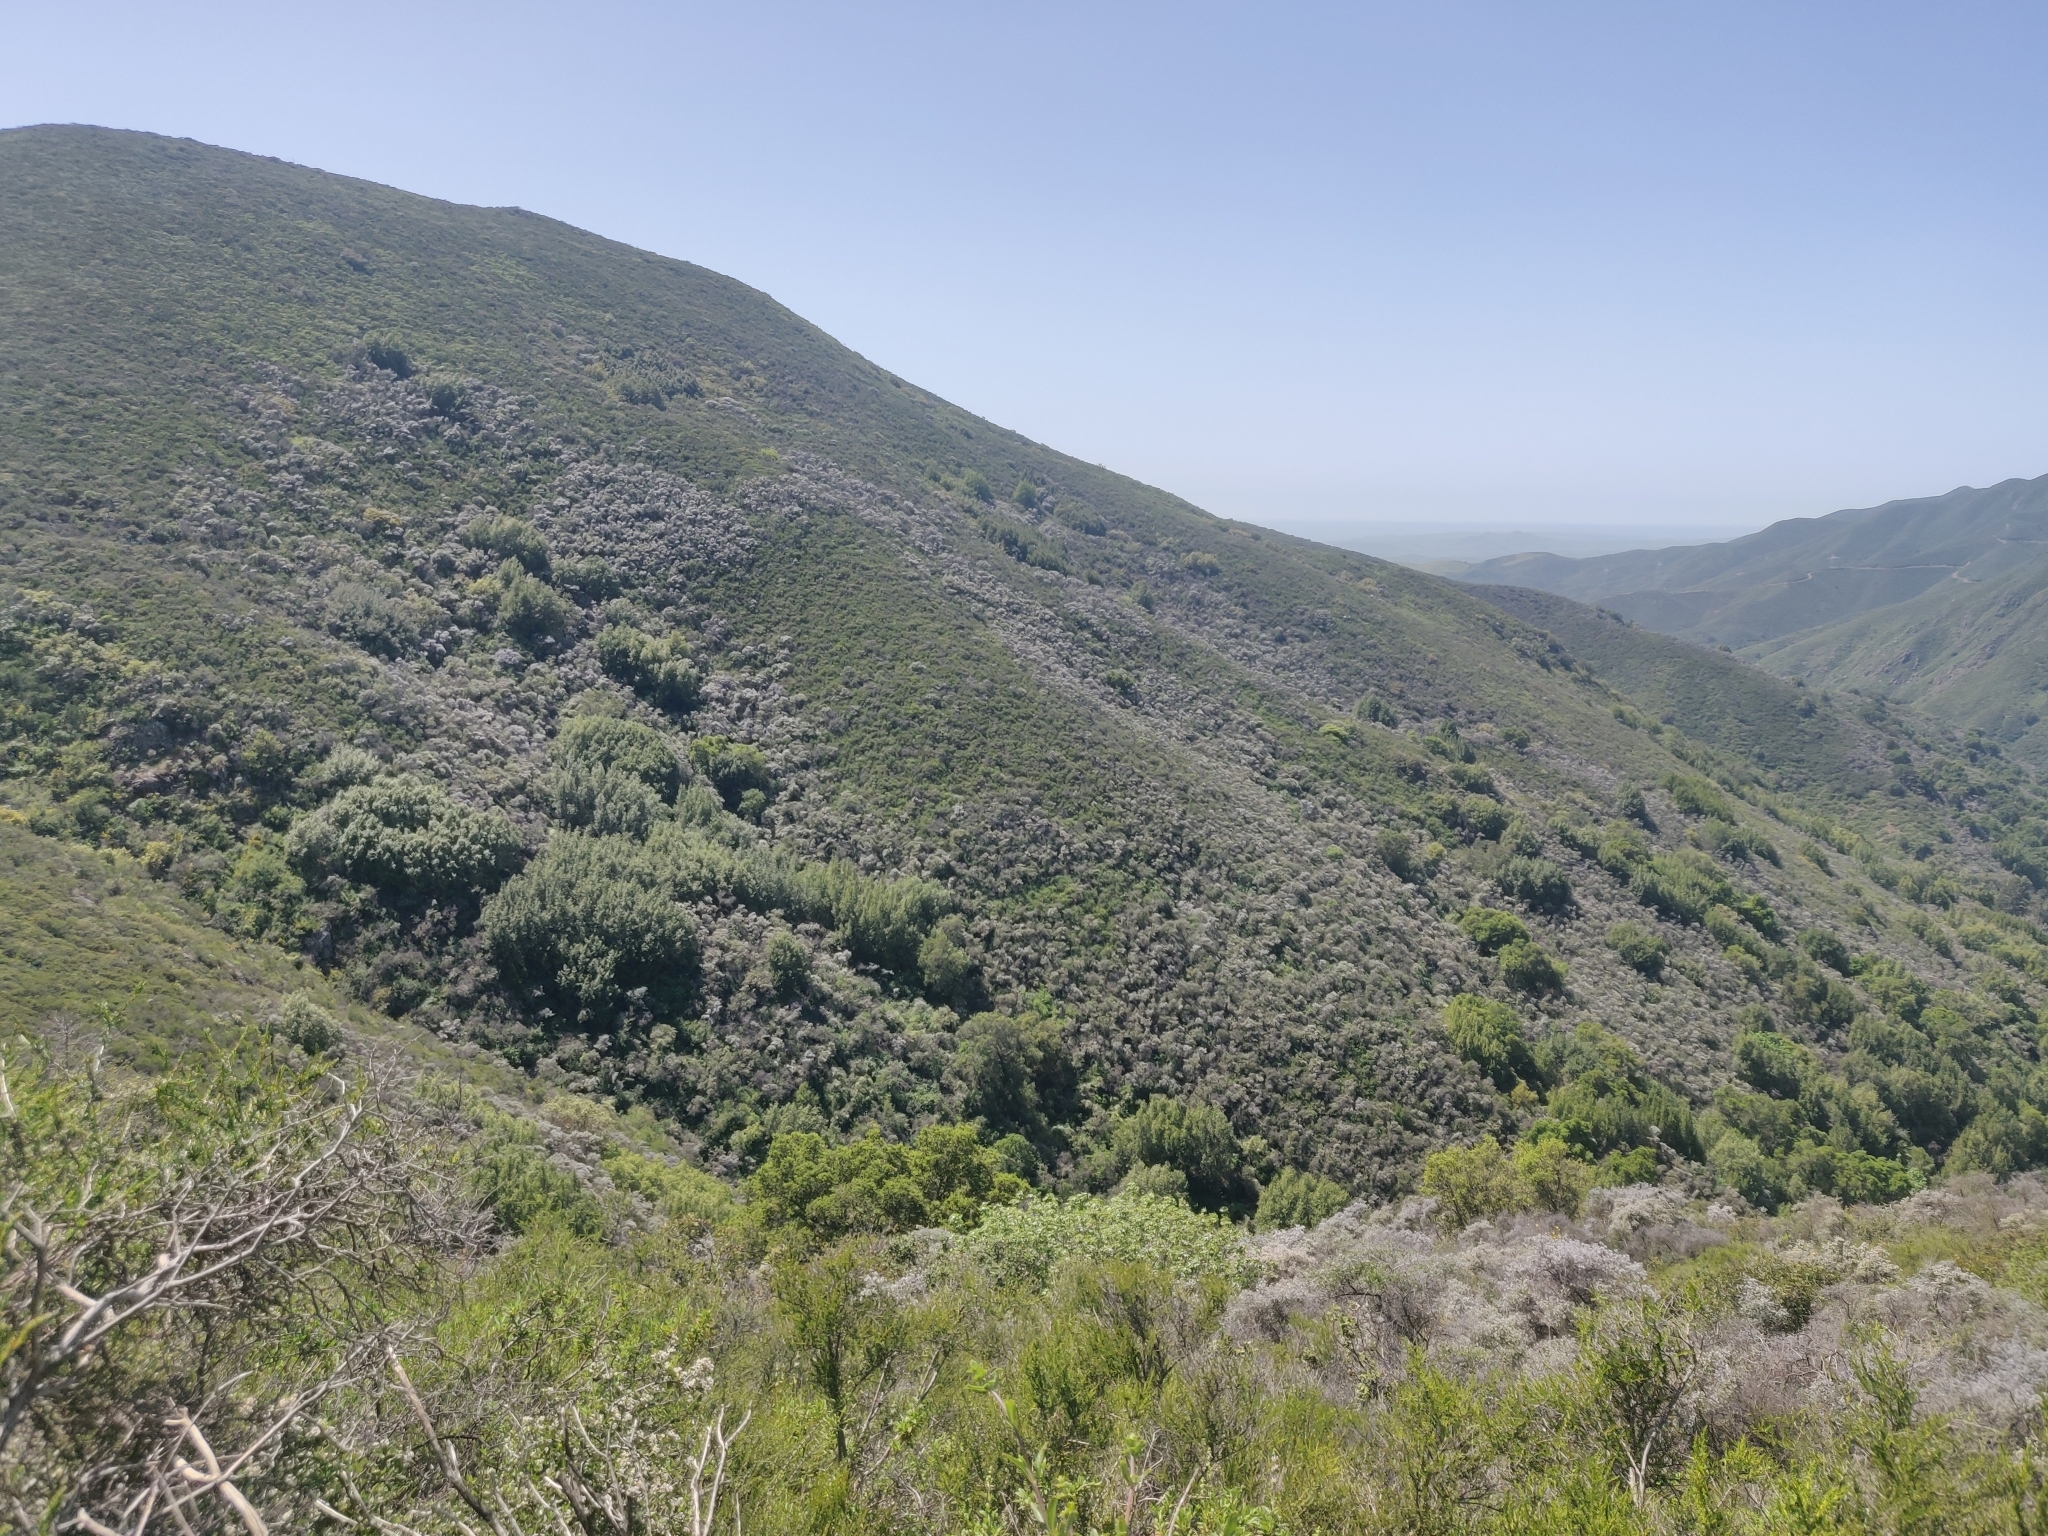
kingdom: Plantae
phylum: Tracheophyta
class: Magnoliopsida
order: Ranunculales
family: Ranunculaceae
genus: Clematis
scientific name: Clematis lasiantha
